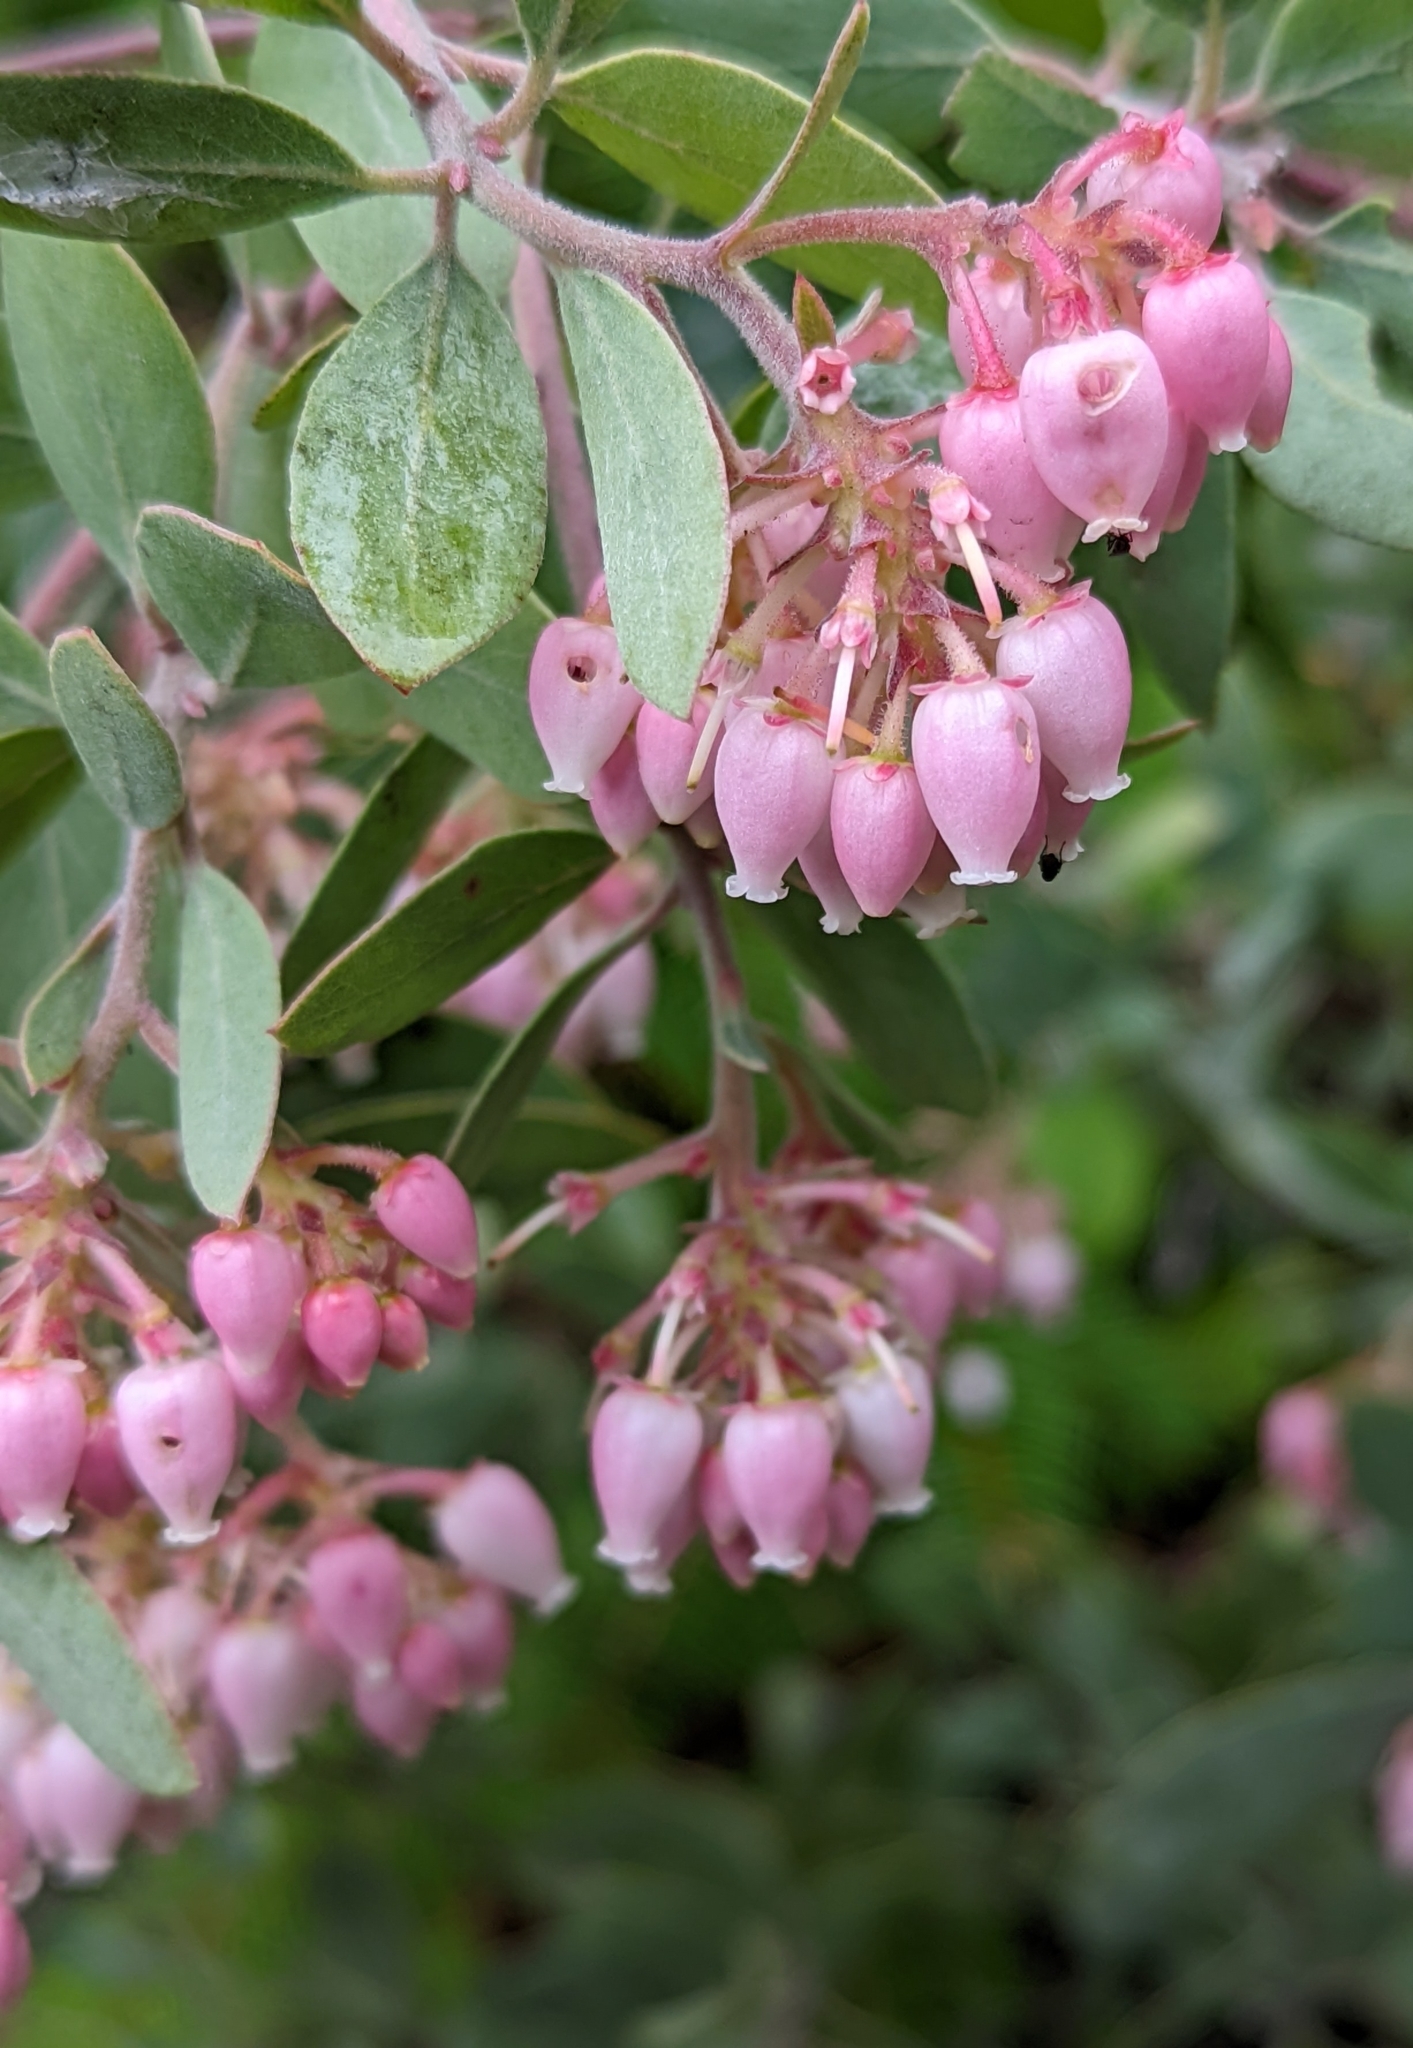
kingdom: Plantae
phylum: Tracheophyta
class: Magnoliopsida
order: Ericales
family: Ericaceae
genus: Arctostaphylos
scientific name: Arctostaphylos canescens
